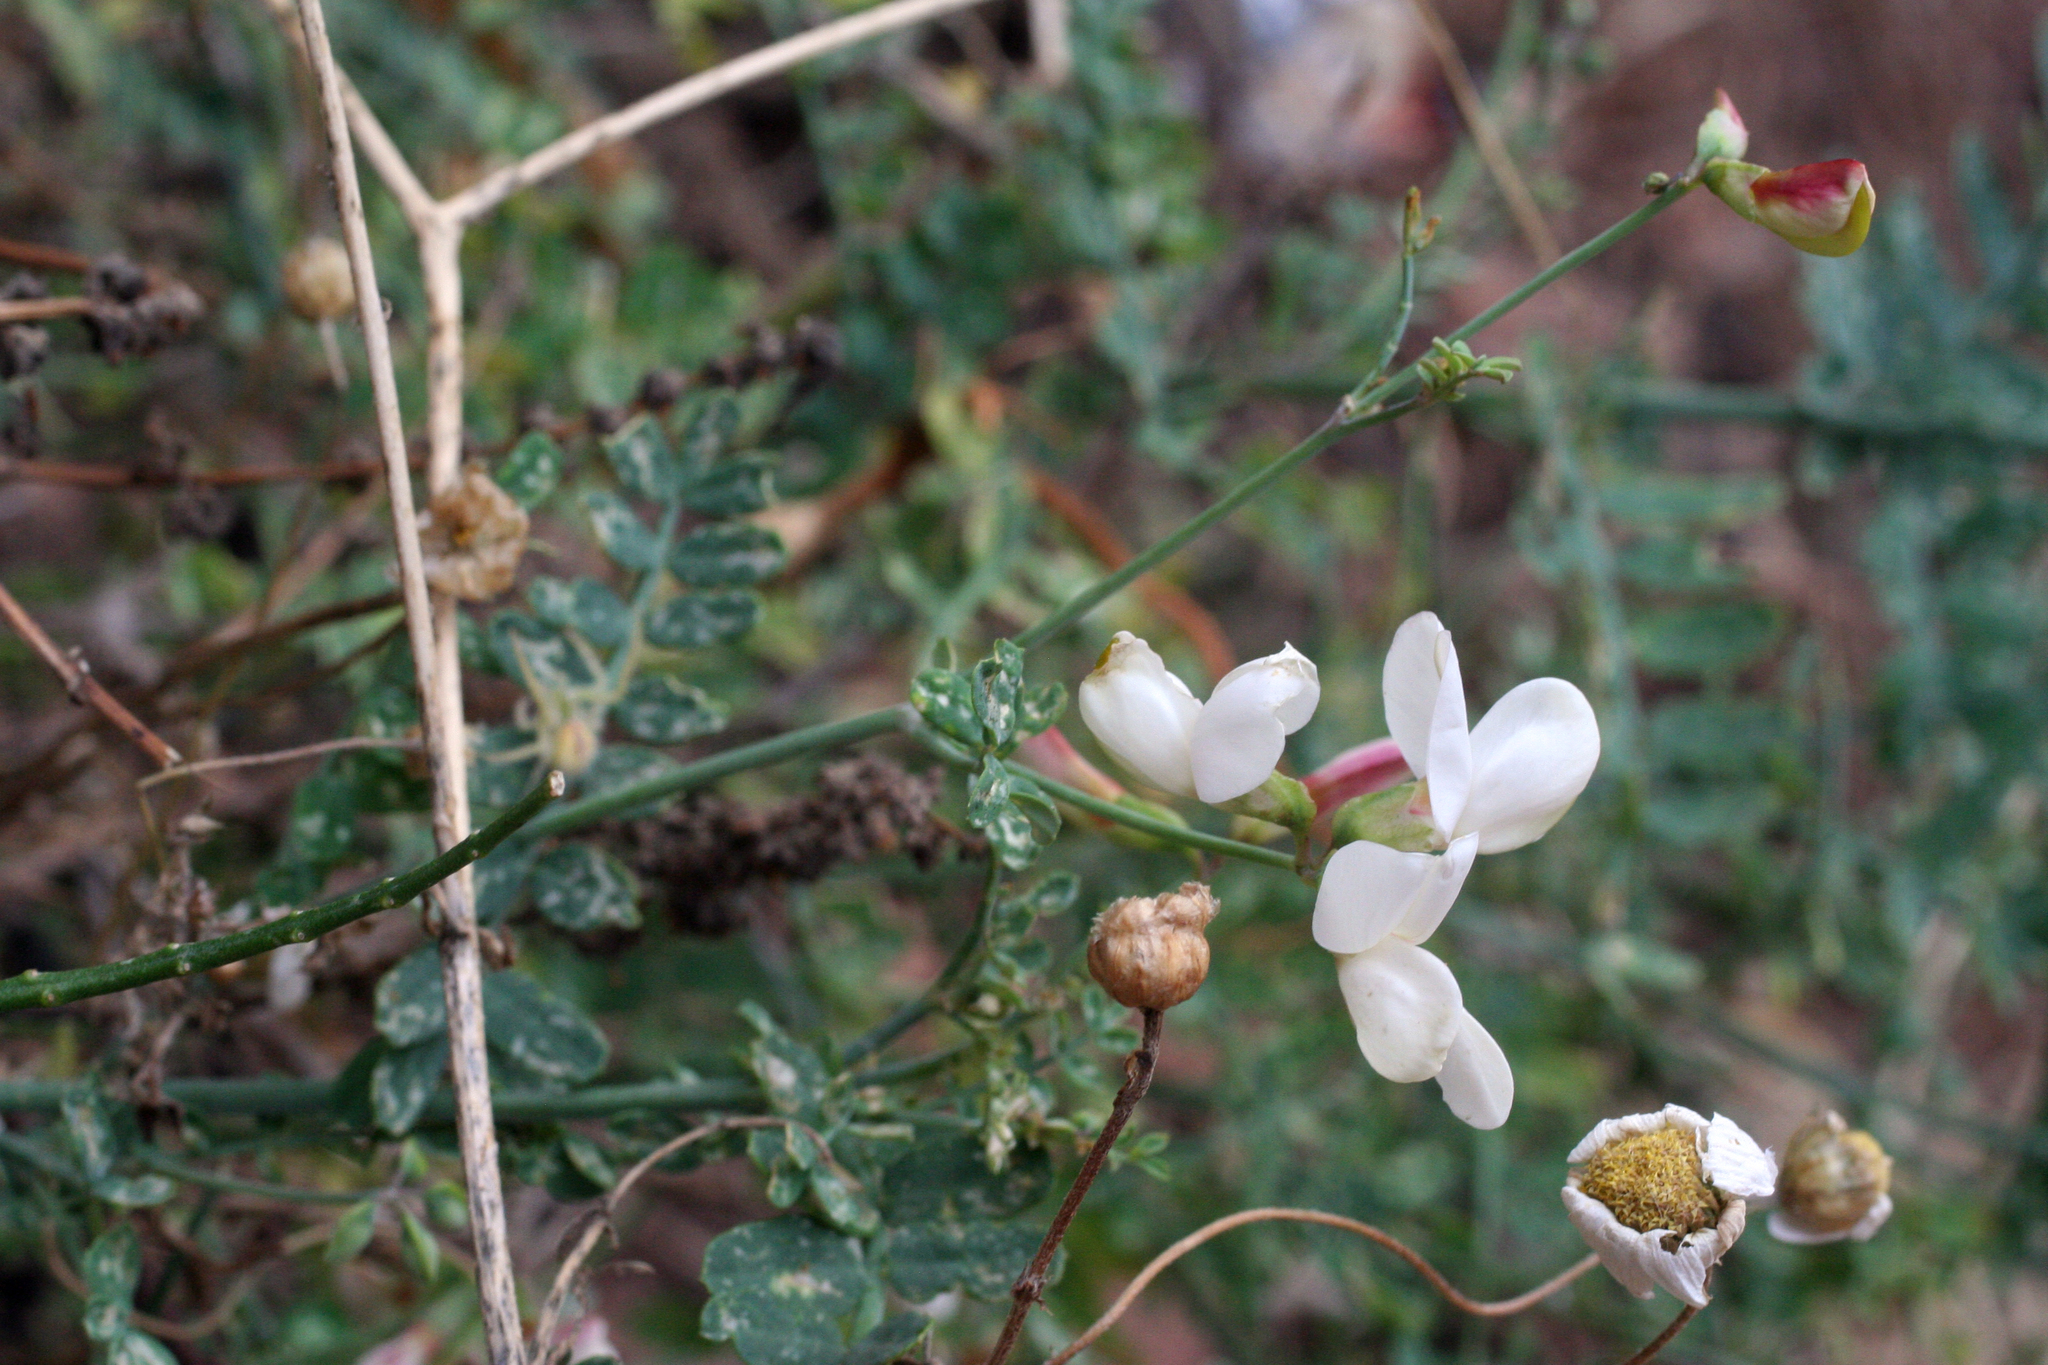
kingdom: Plantae
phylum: Tracheophyta
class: Magnoliopsida
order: Fabales
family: Fabaceae
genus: Coronilla
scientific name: Coronilla viminalis
